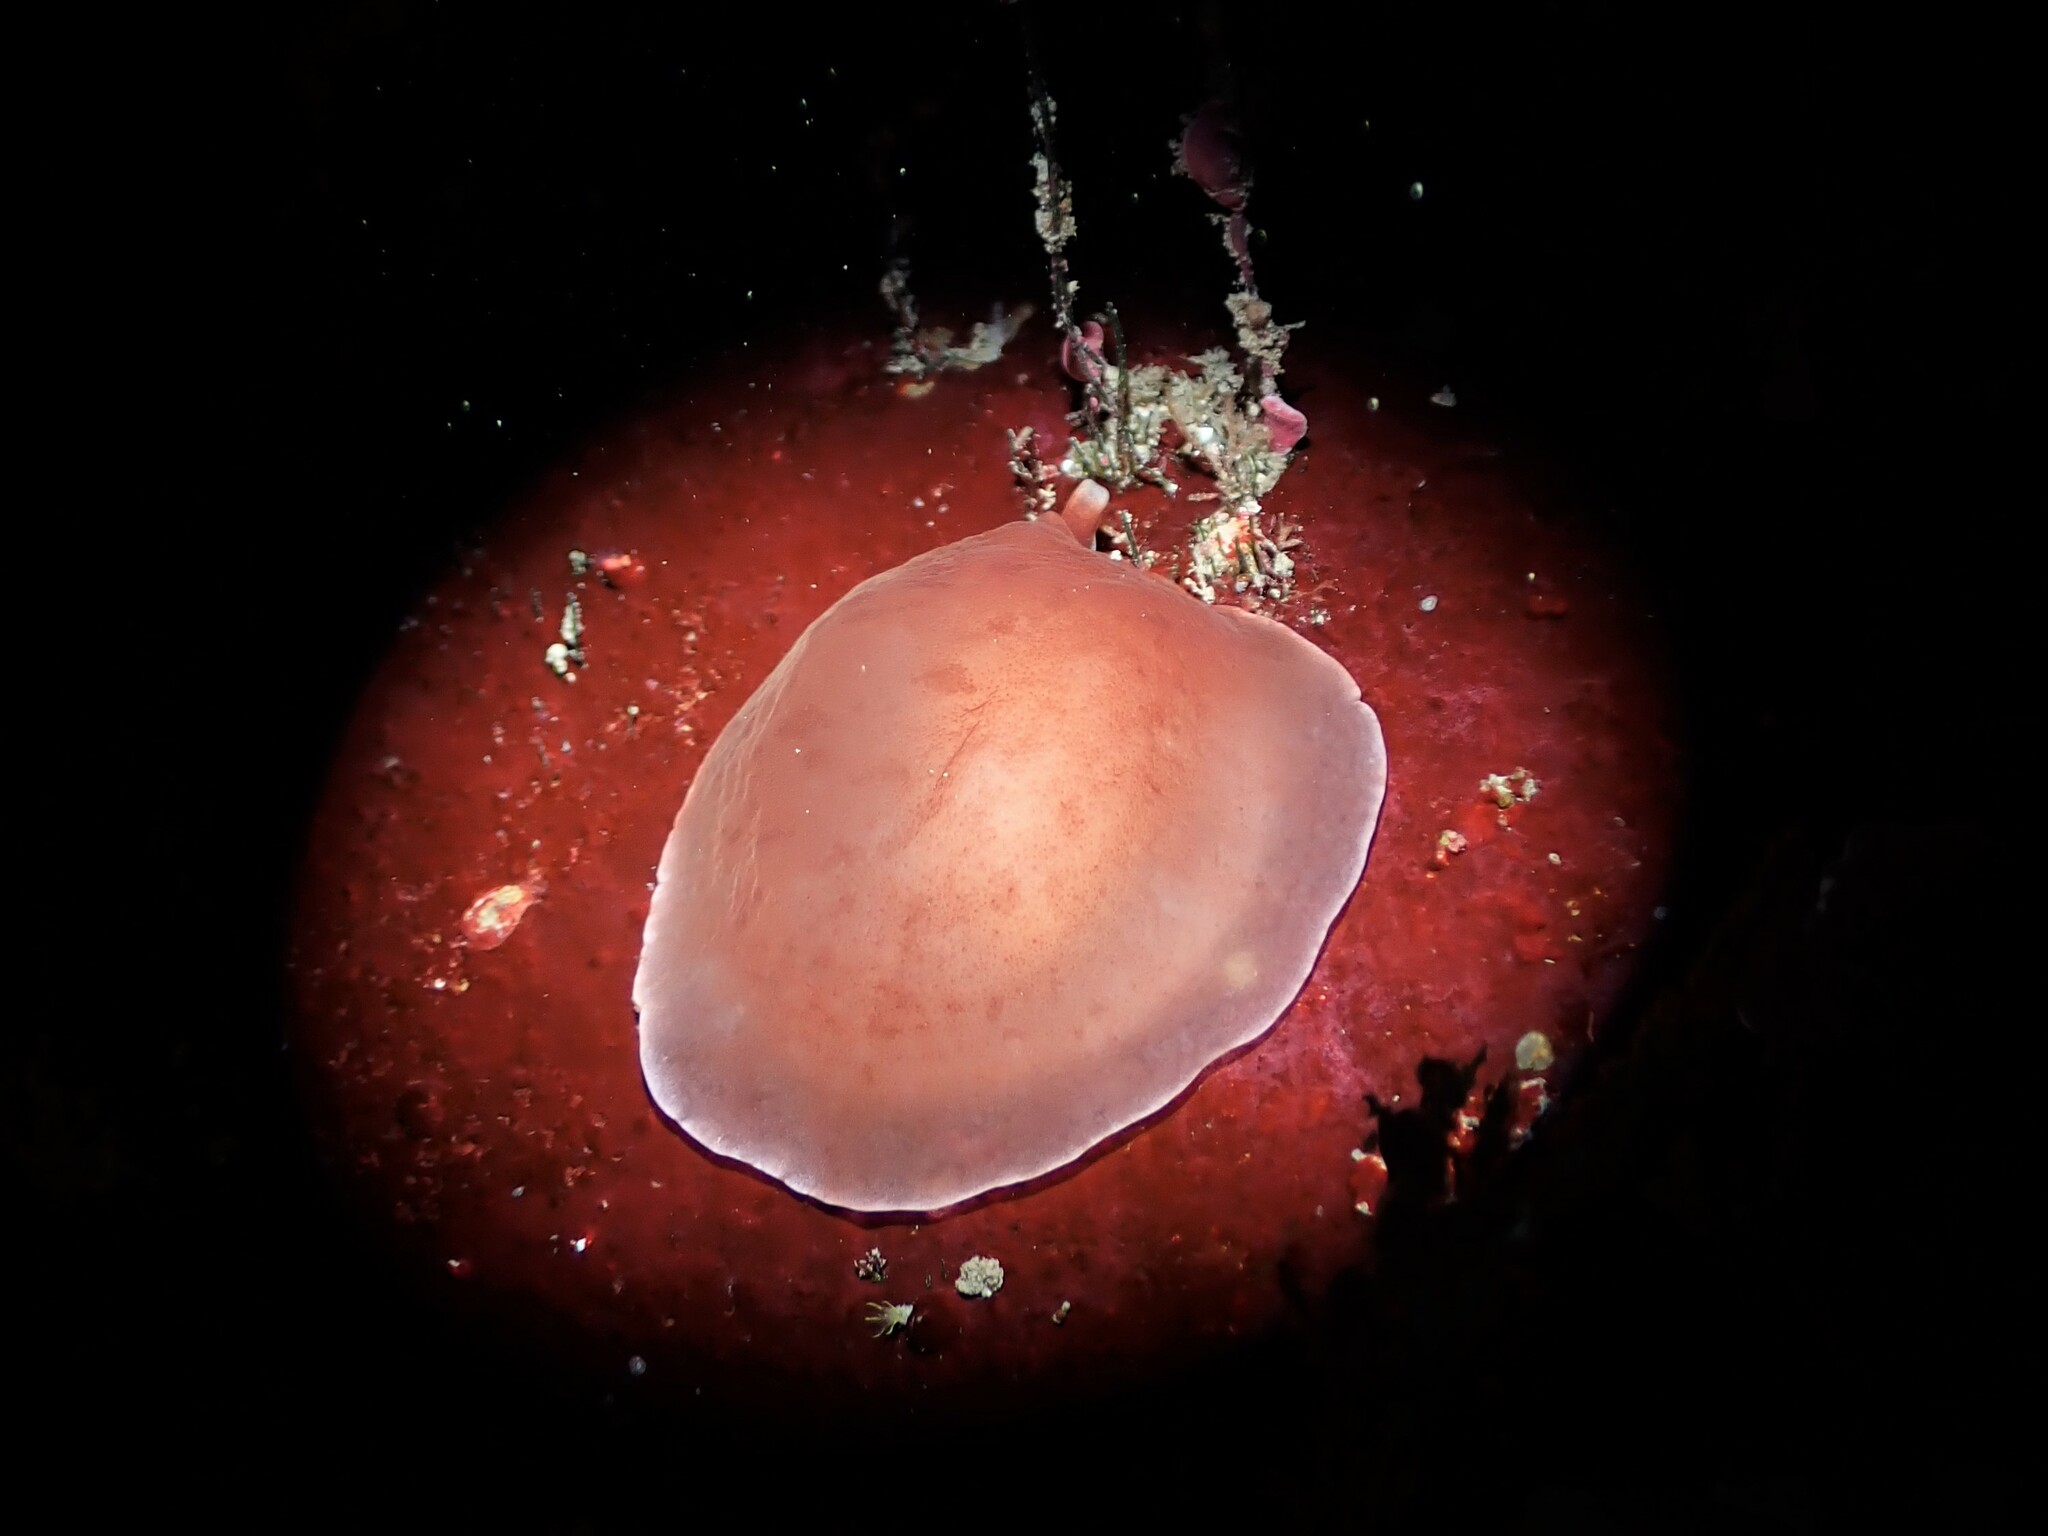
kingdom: Animalia
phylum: Mollusca
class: Gastropoda
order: Pleurobranchida
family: Pleurobranchidae
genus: Berthella
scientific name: Berthella ornata
